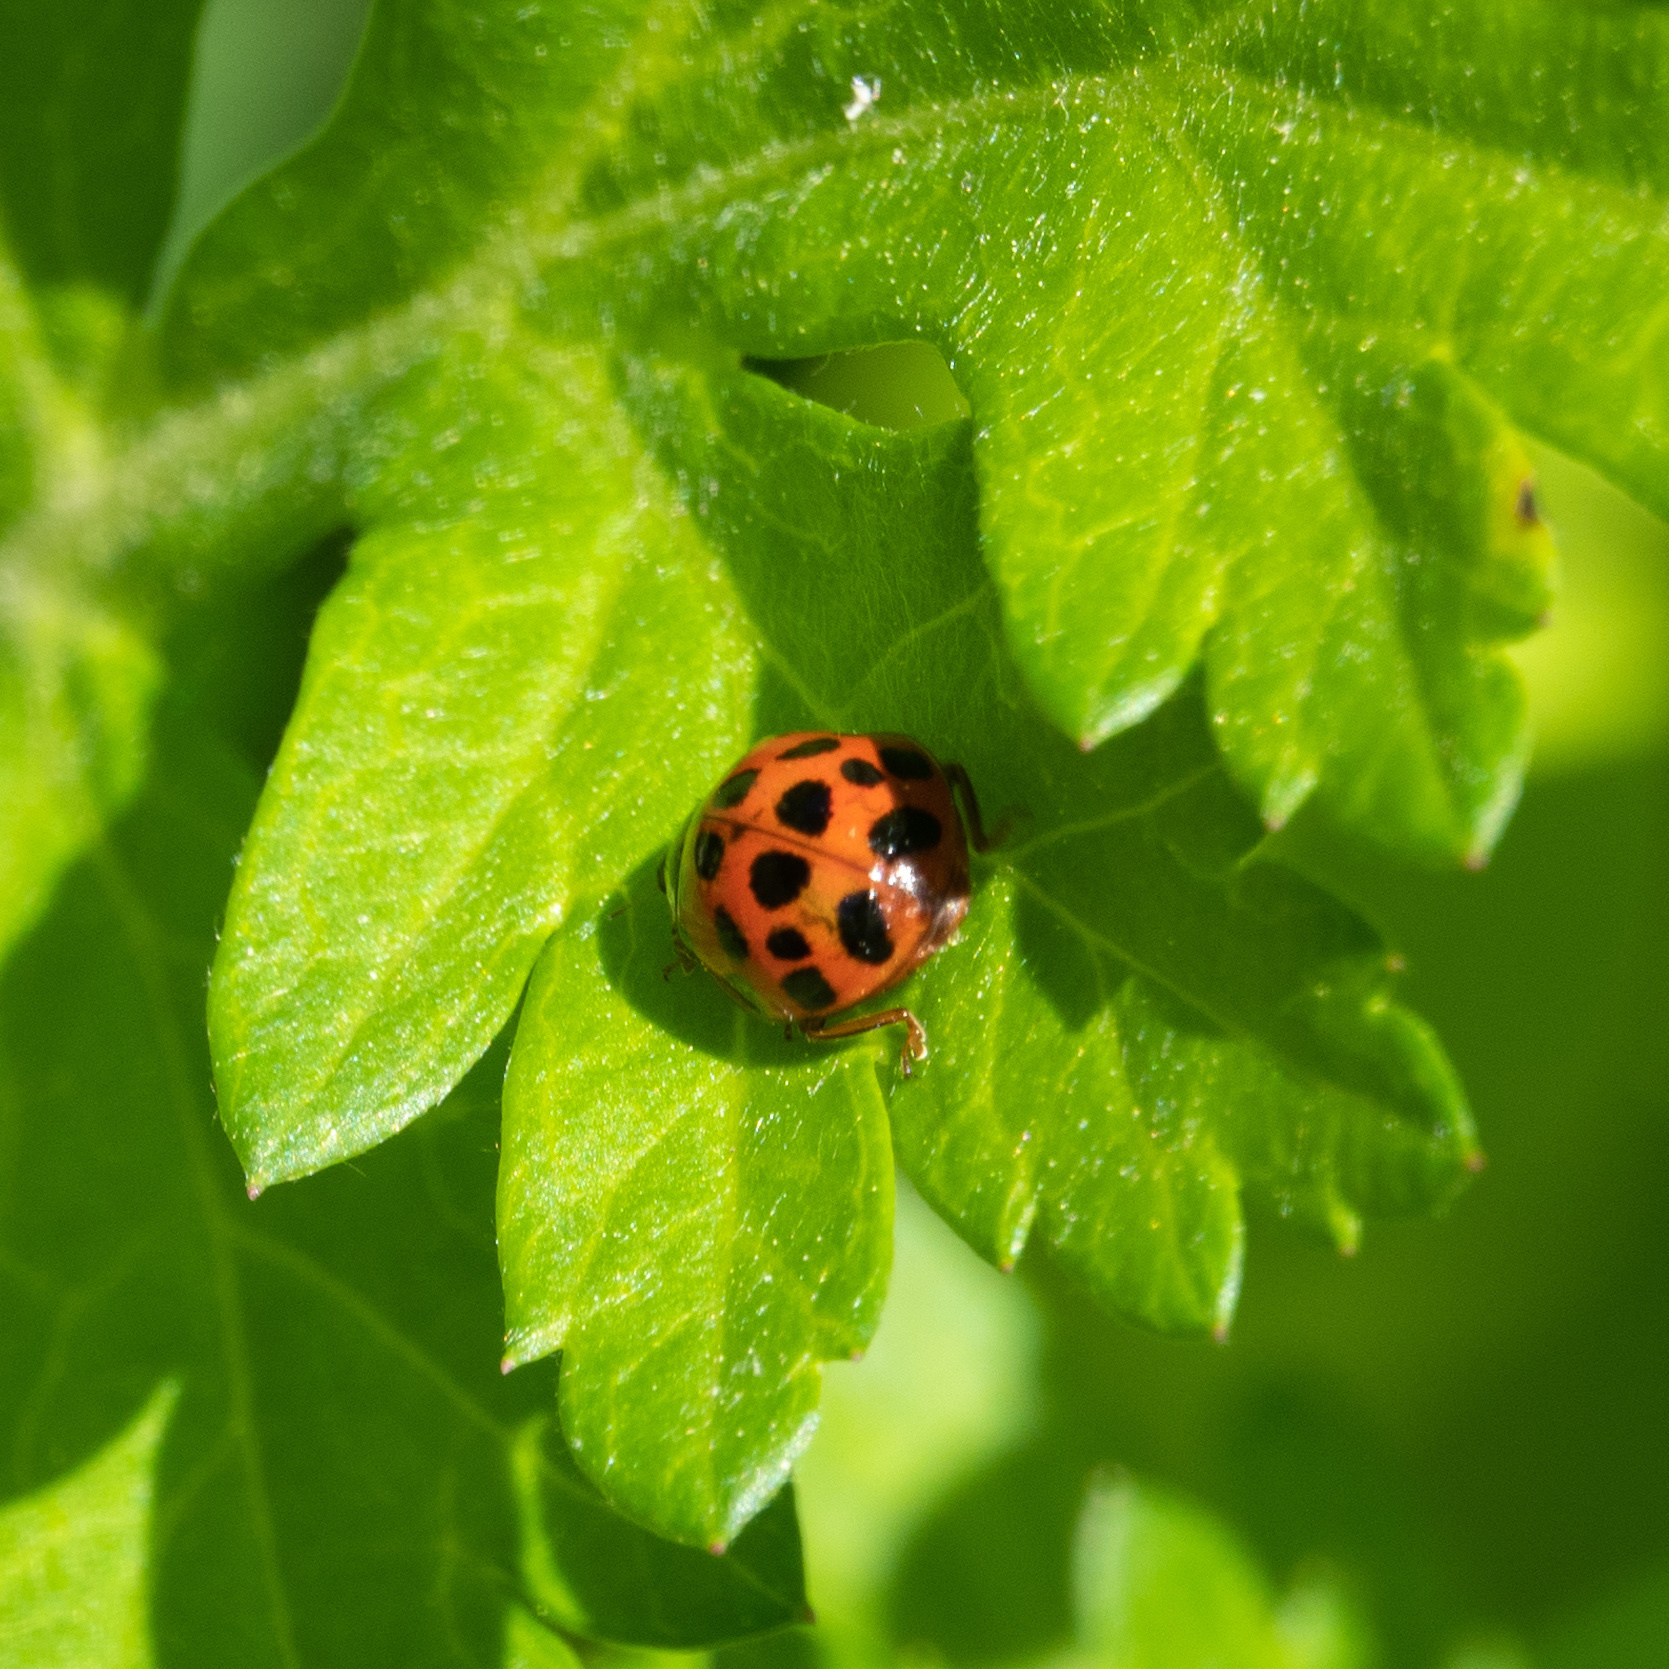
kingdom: Animalia
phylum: Arthropoda
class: Insecta
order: Coleoptera
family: Coccinellidae
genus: Harmonia
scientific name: Harmonia axyridis
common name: Harlequin ladybird
